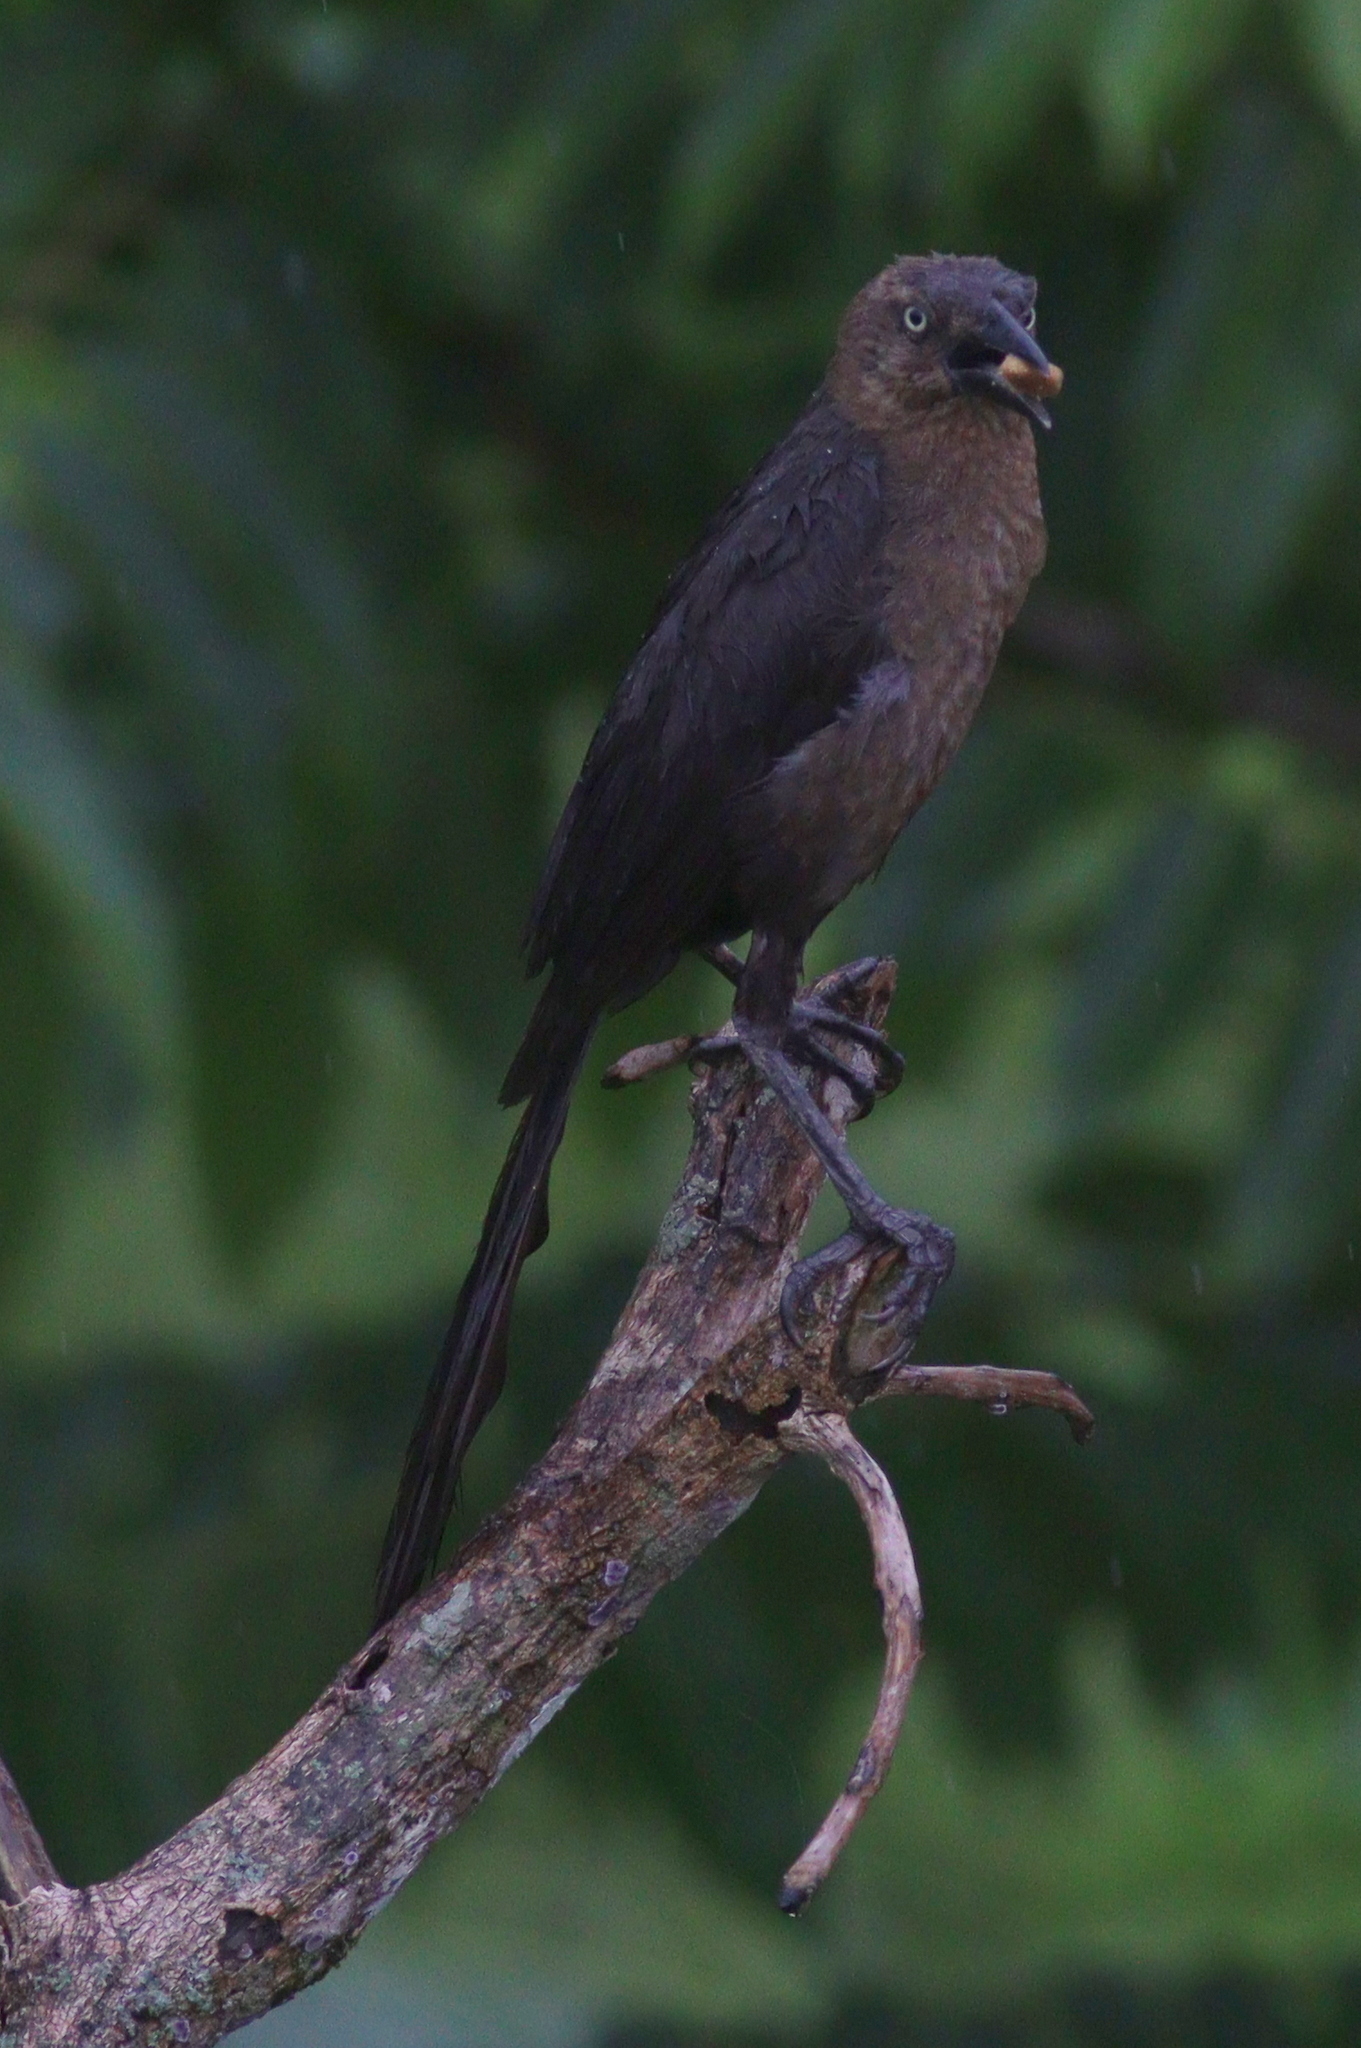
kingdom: Animalia
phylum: Chordata
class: Aves
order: Passeriformes
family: Icteridae
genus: Quiscalus
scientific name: Quiscalus mexicanus
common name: Great-tailed grackle
